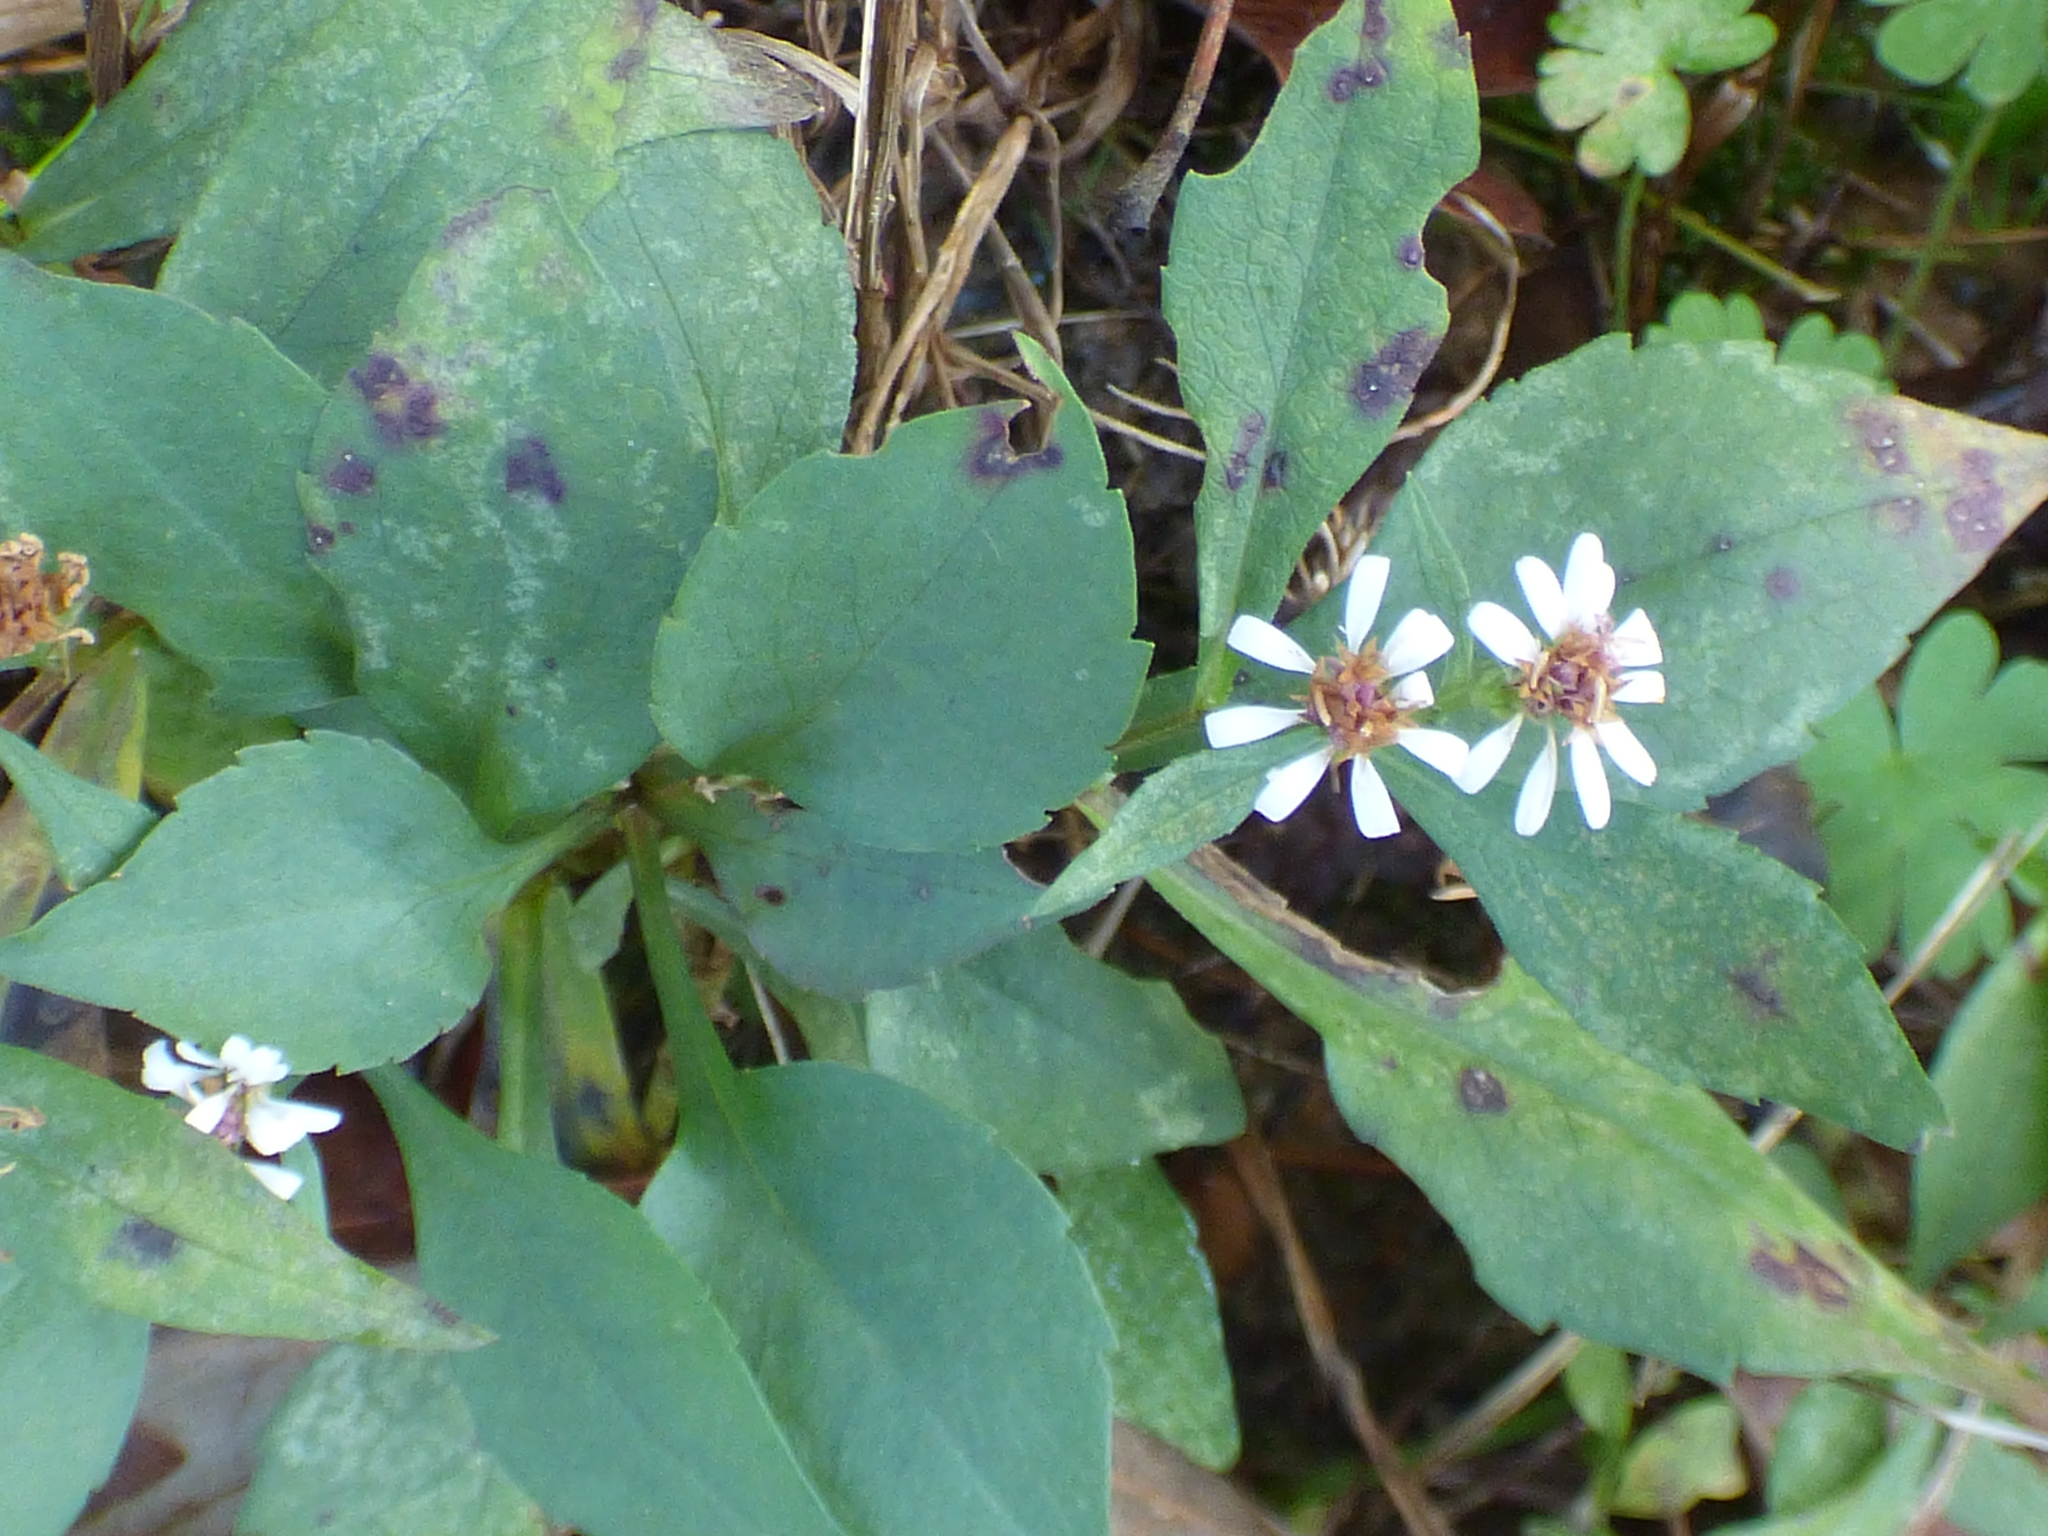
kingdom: Plantae
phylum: Tracheophyta
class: Magnoliopsida
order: Asterales
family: Asteraceae
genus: Symphyotrichum
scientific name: Symphyotrichum lateriflorum
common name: Calico aster
